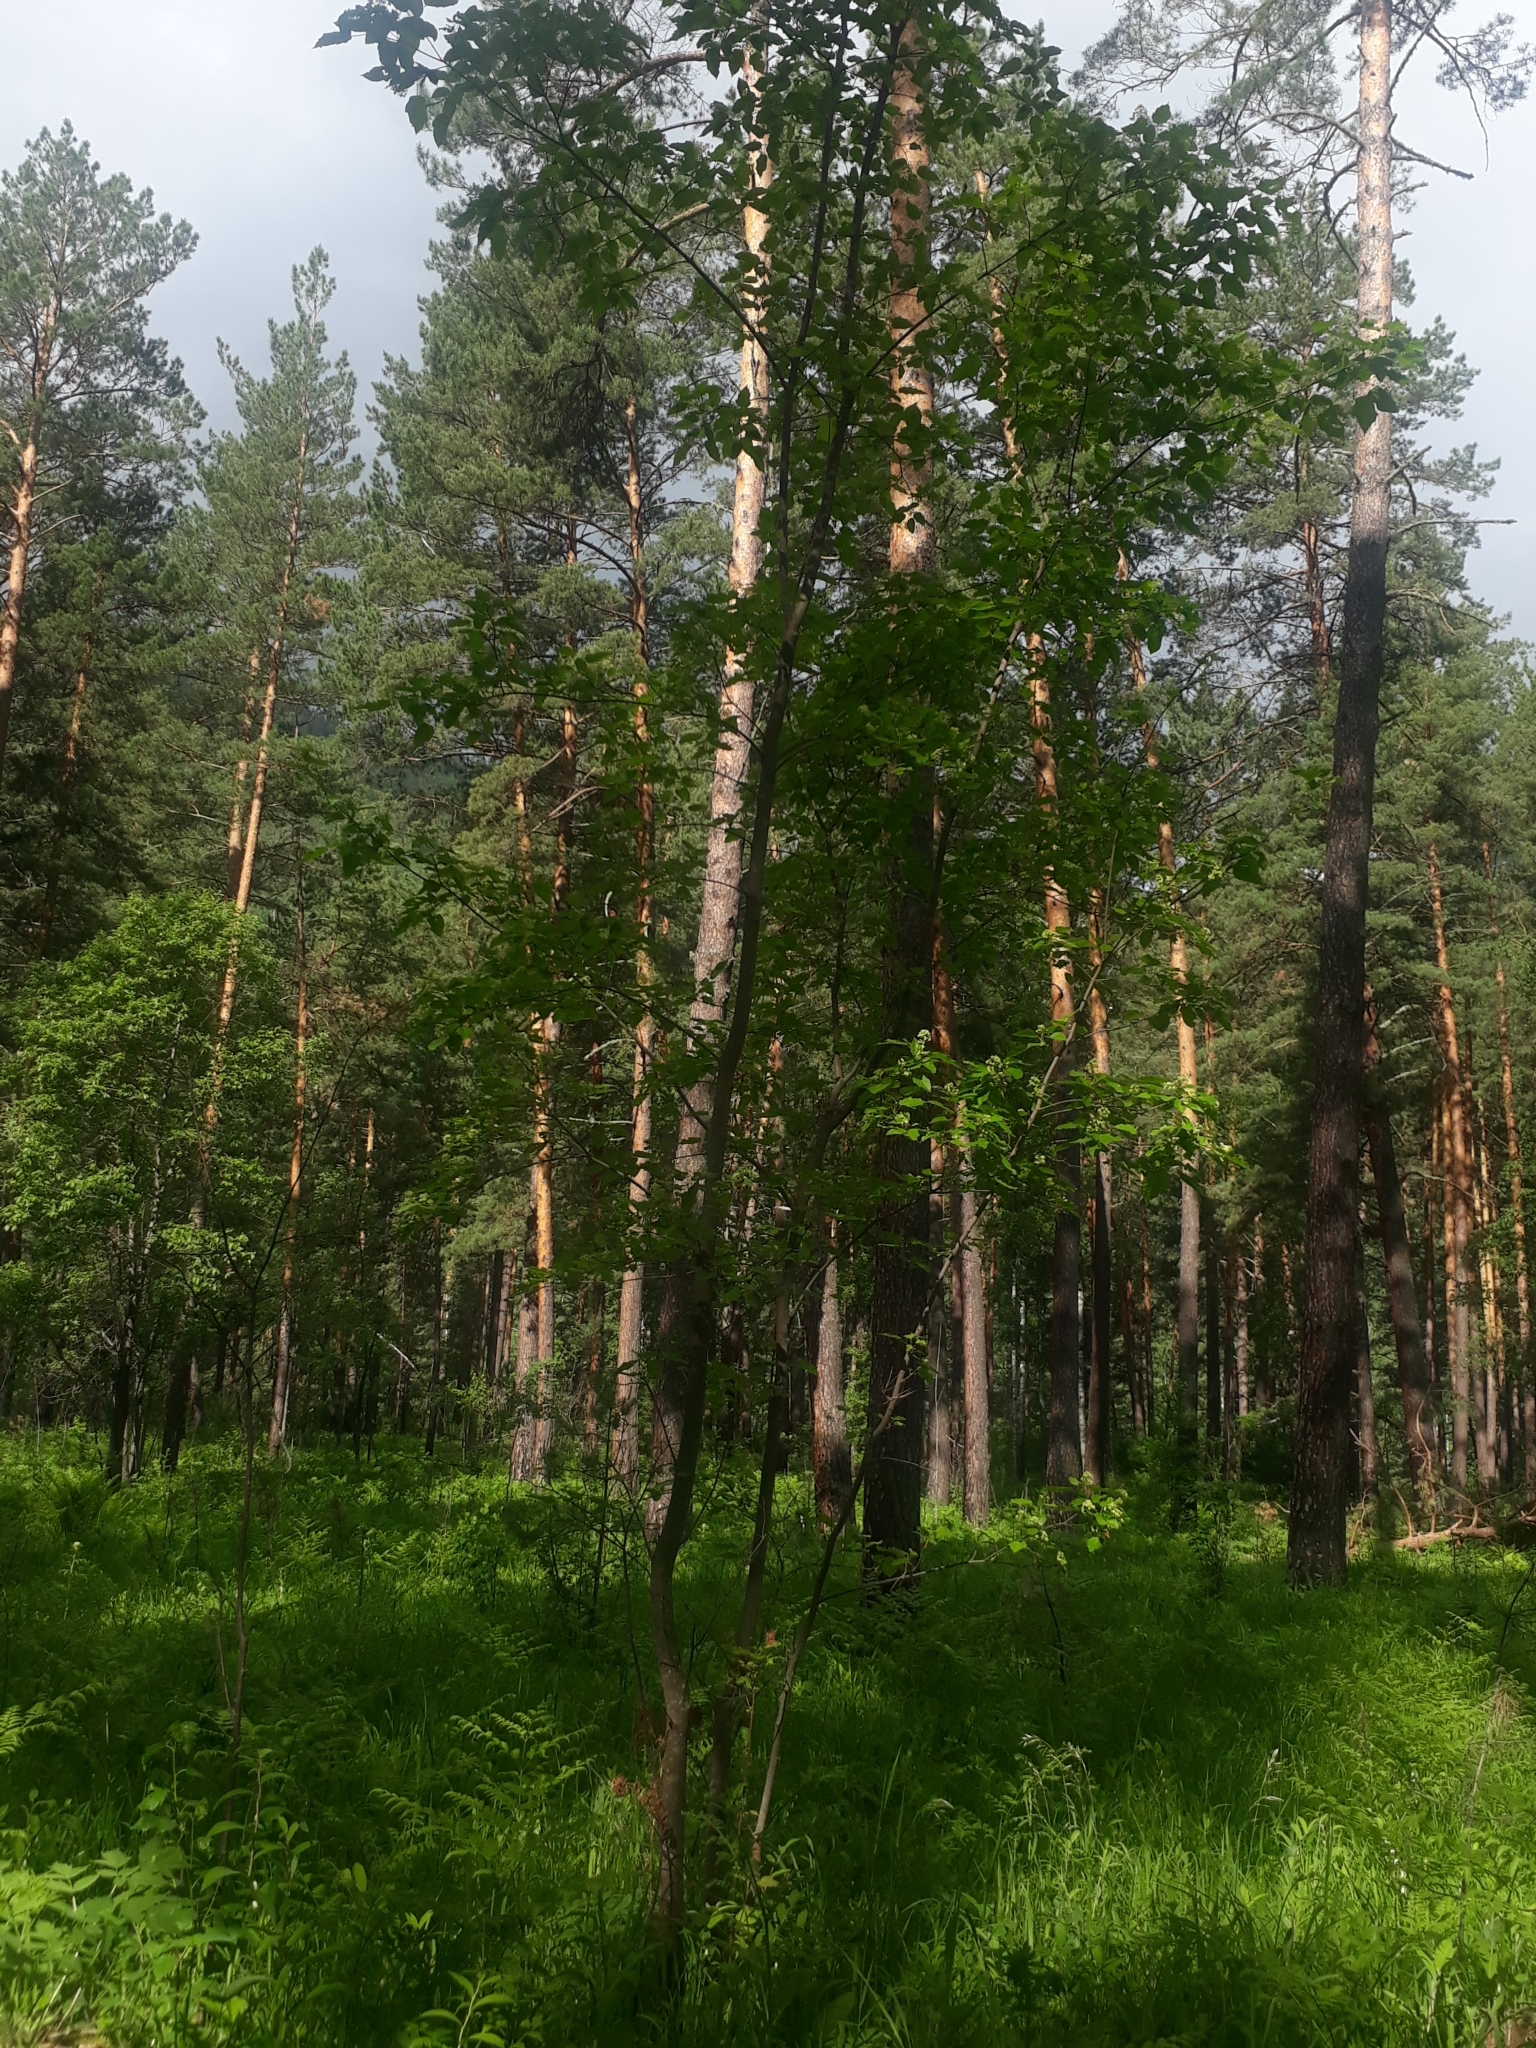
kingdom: Plantae
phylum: Tracheophyta
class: Magnoliopsida
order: Sapindales
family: Sapindaceae
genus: Acer
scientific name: Acer tataricum
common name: Tartar maple
